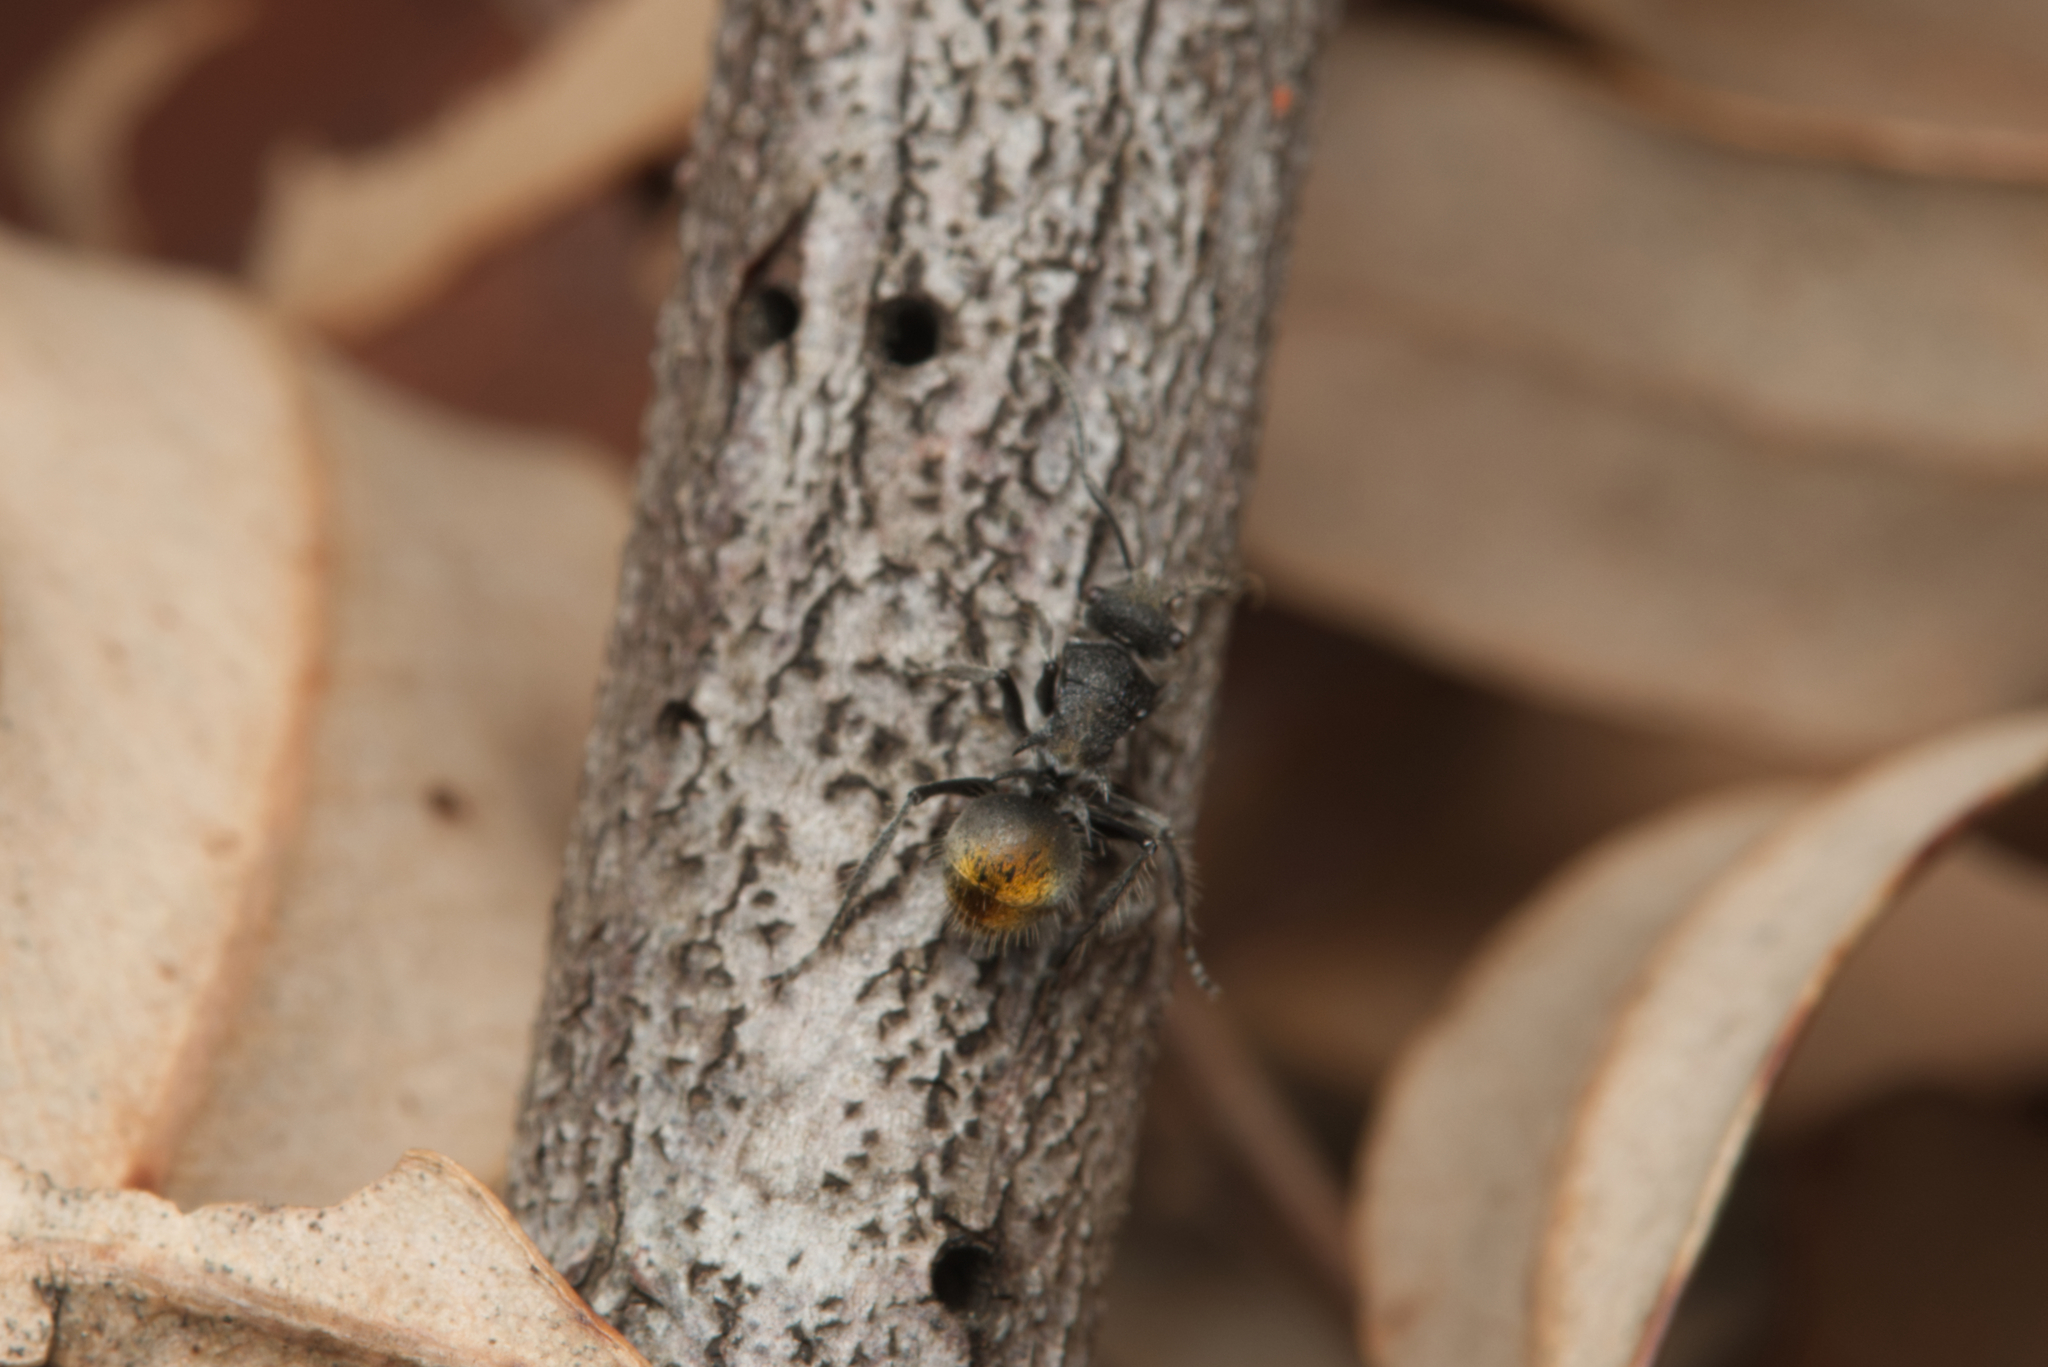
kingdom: Animalia
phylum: Arthropoda
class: Insecta
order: Hymenoptera
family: Formicidae
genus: Polyrhachis
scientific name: Polyrhachis vermiculosa
